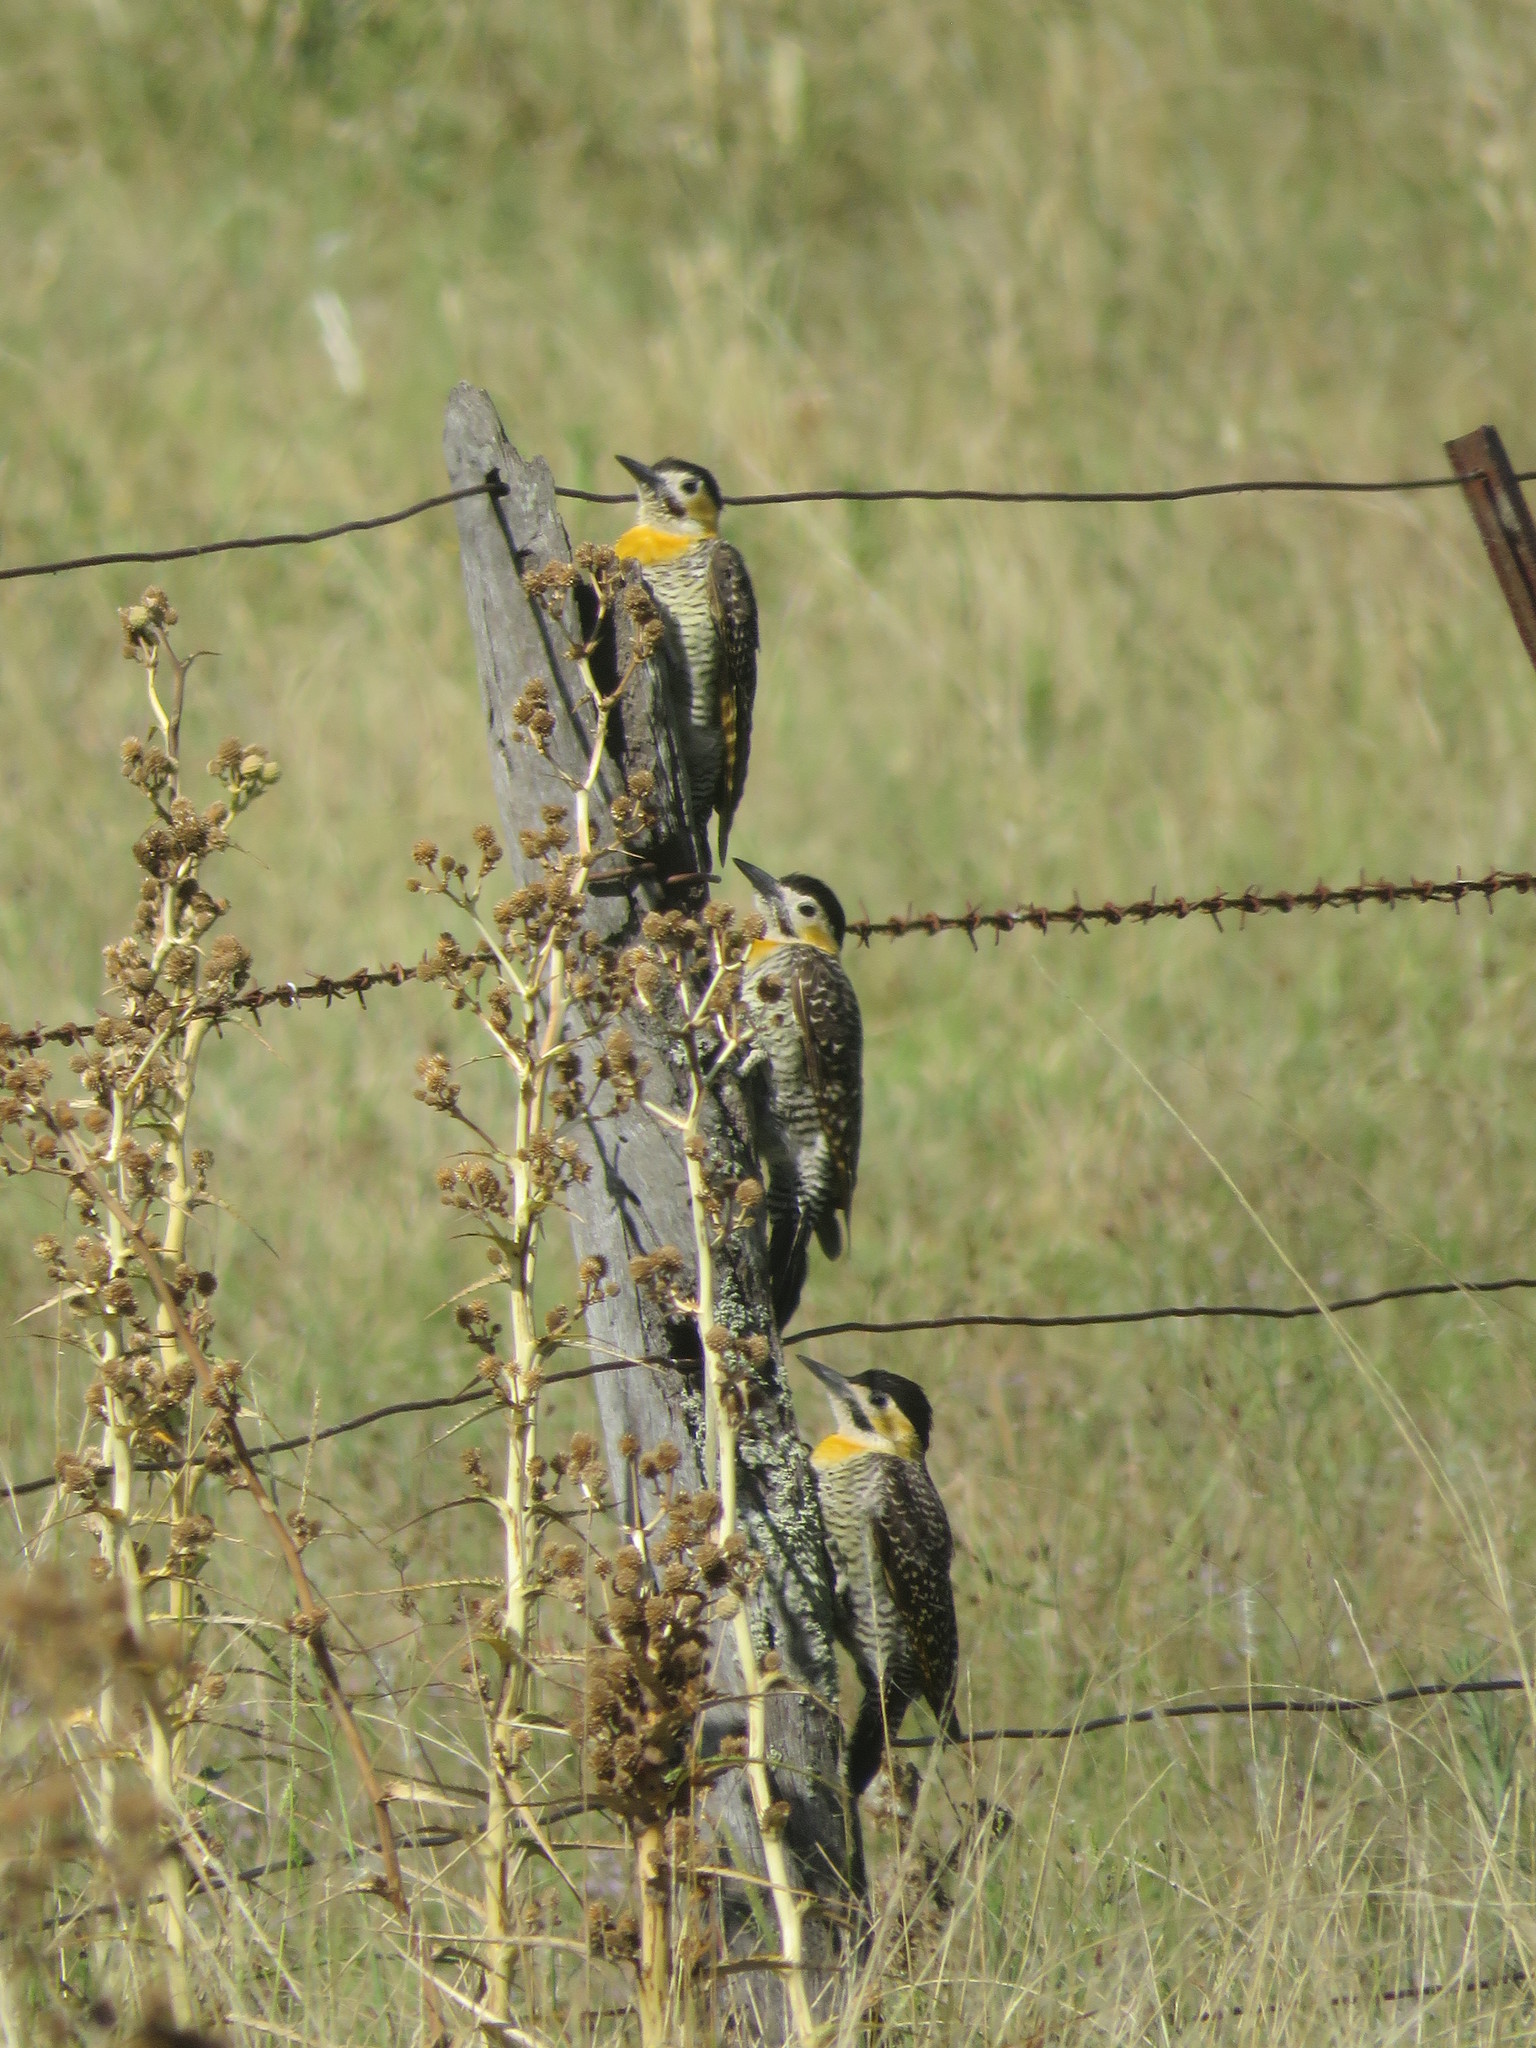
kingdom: Animalia
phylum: Chordata
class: Aves
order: Piciformes
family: Picidae
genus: Colaptes
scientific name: Colaptes campestris
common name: Campo flicker
